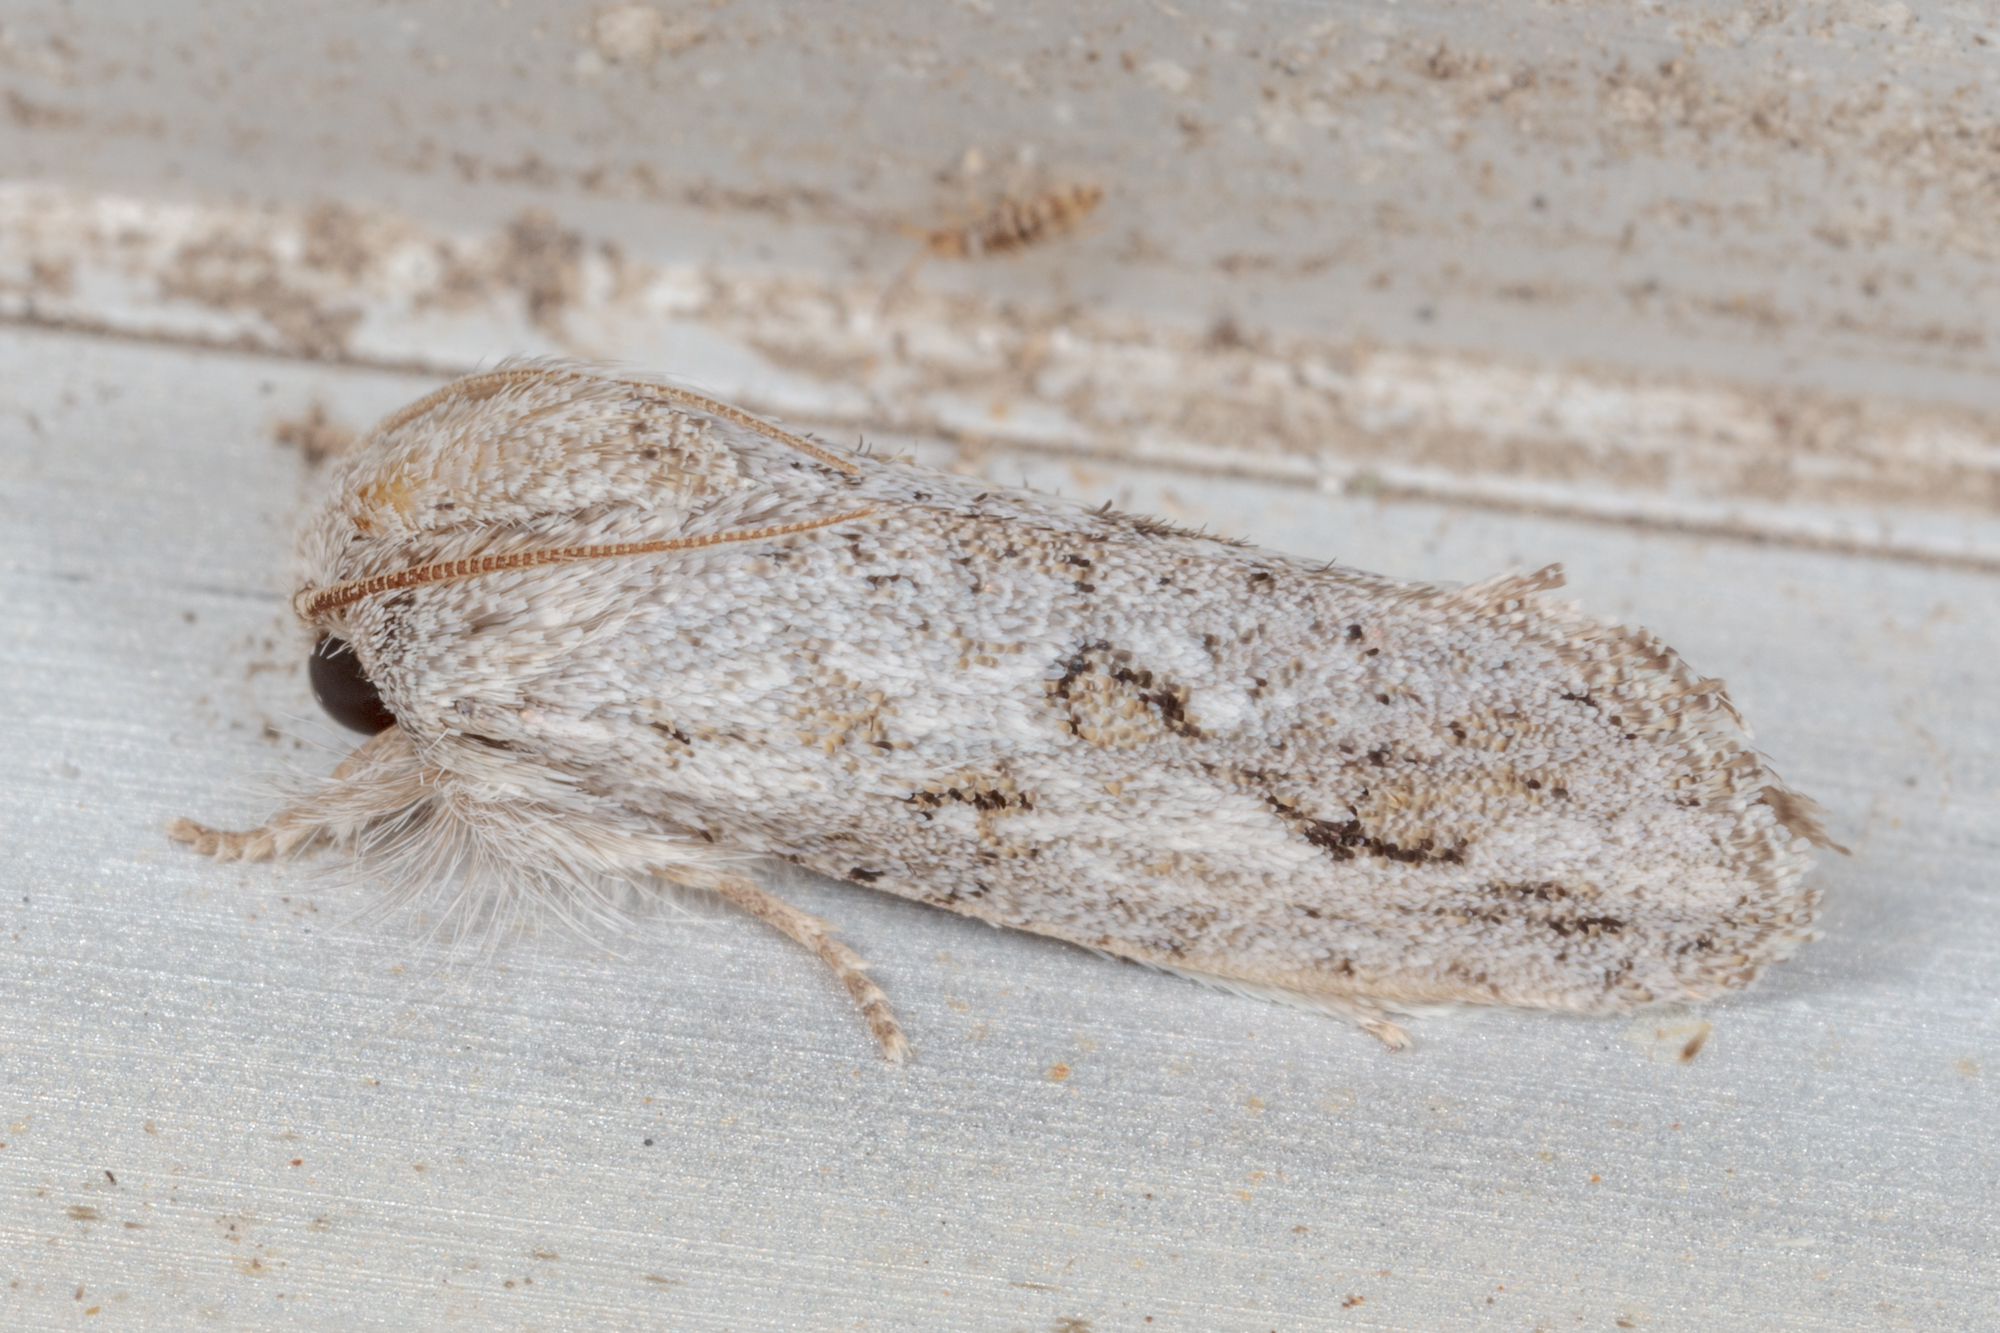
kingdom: Animalia
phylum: Arthropoda
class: Insecta
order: Lepidoptera
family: Tineidae
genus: Acrolophus
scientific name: Acrolophus griseus
